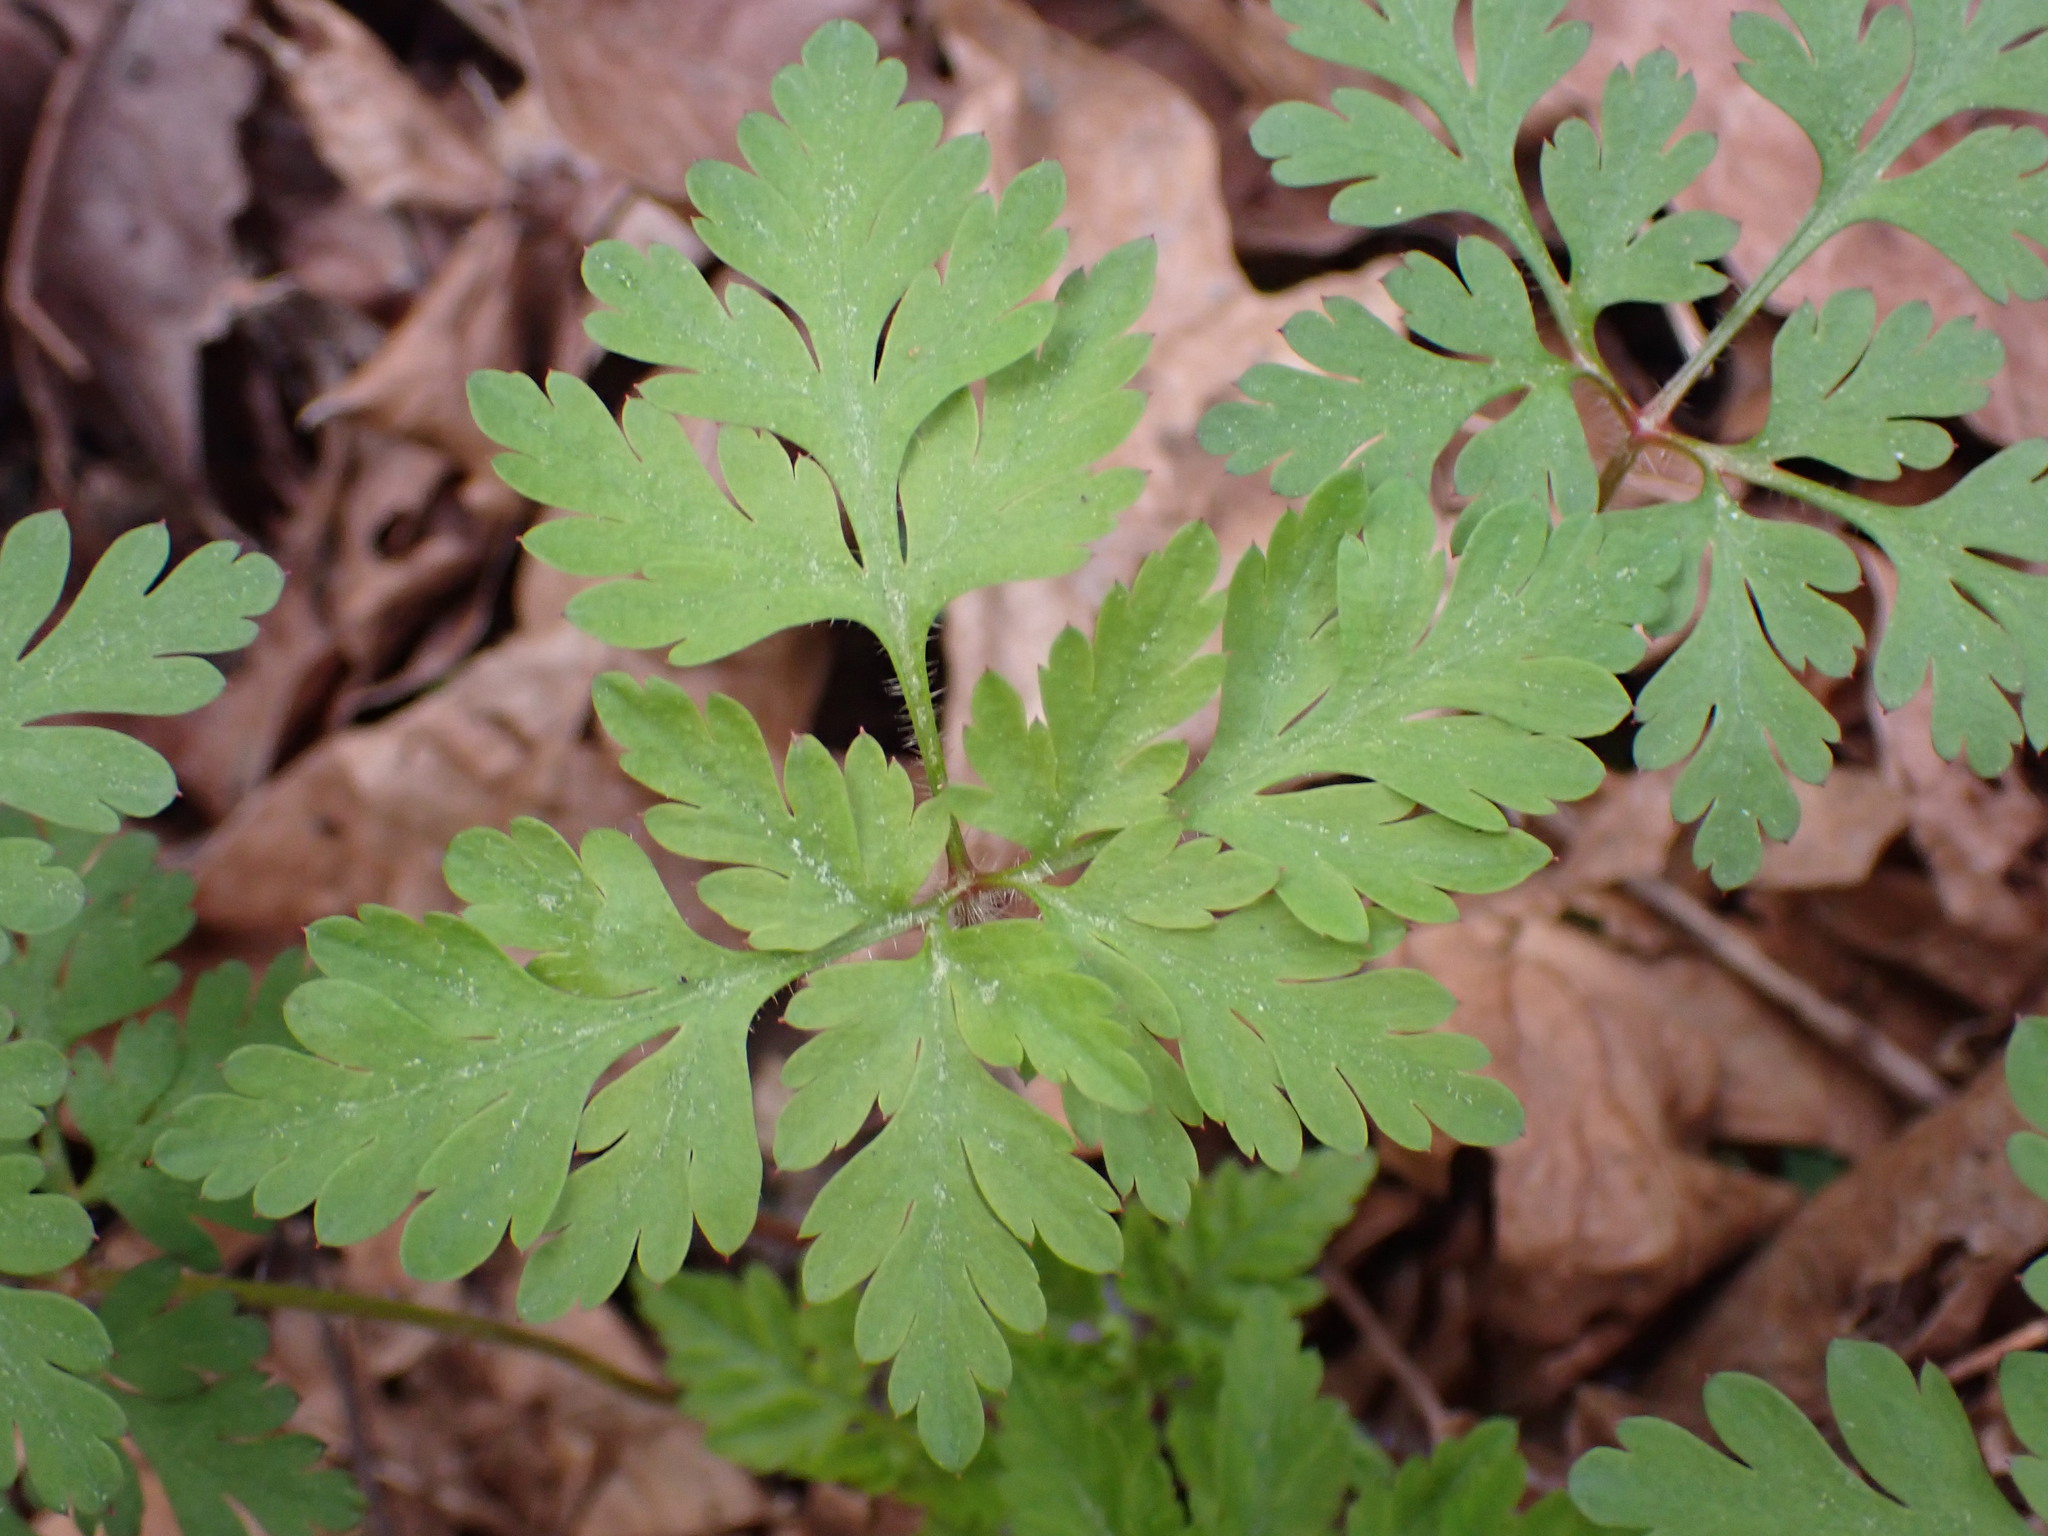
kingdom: Plantae
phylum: Tracheophyta
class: Magnoliopsida
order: Geraniales
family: Geraniaceae
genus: Geranium
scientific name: Geranium robertianum
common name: Herb-robert
